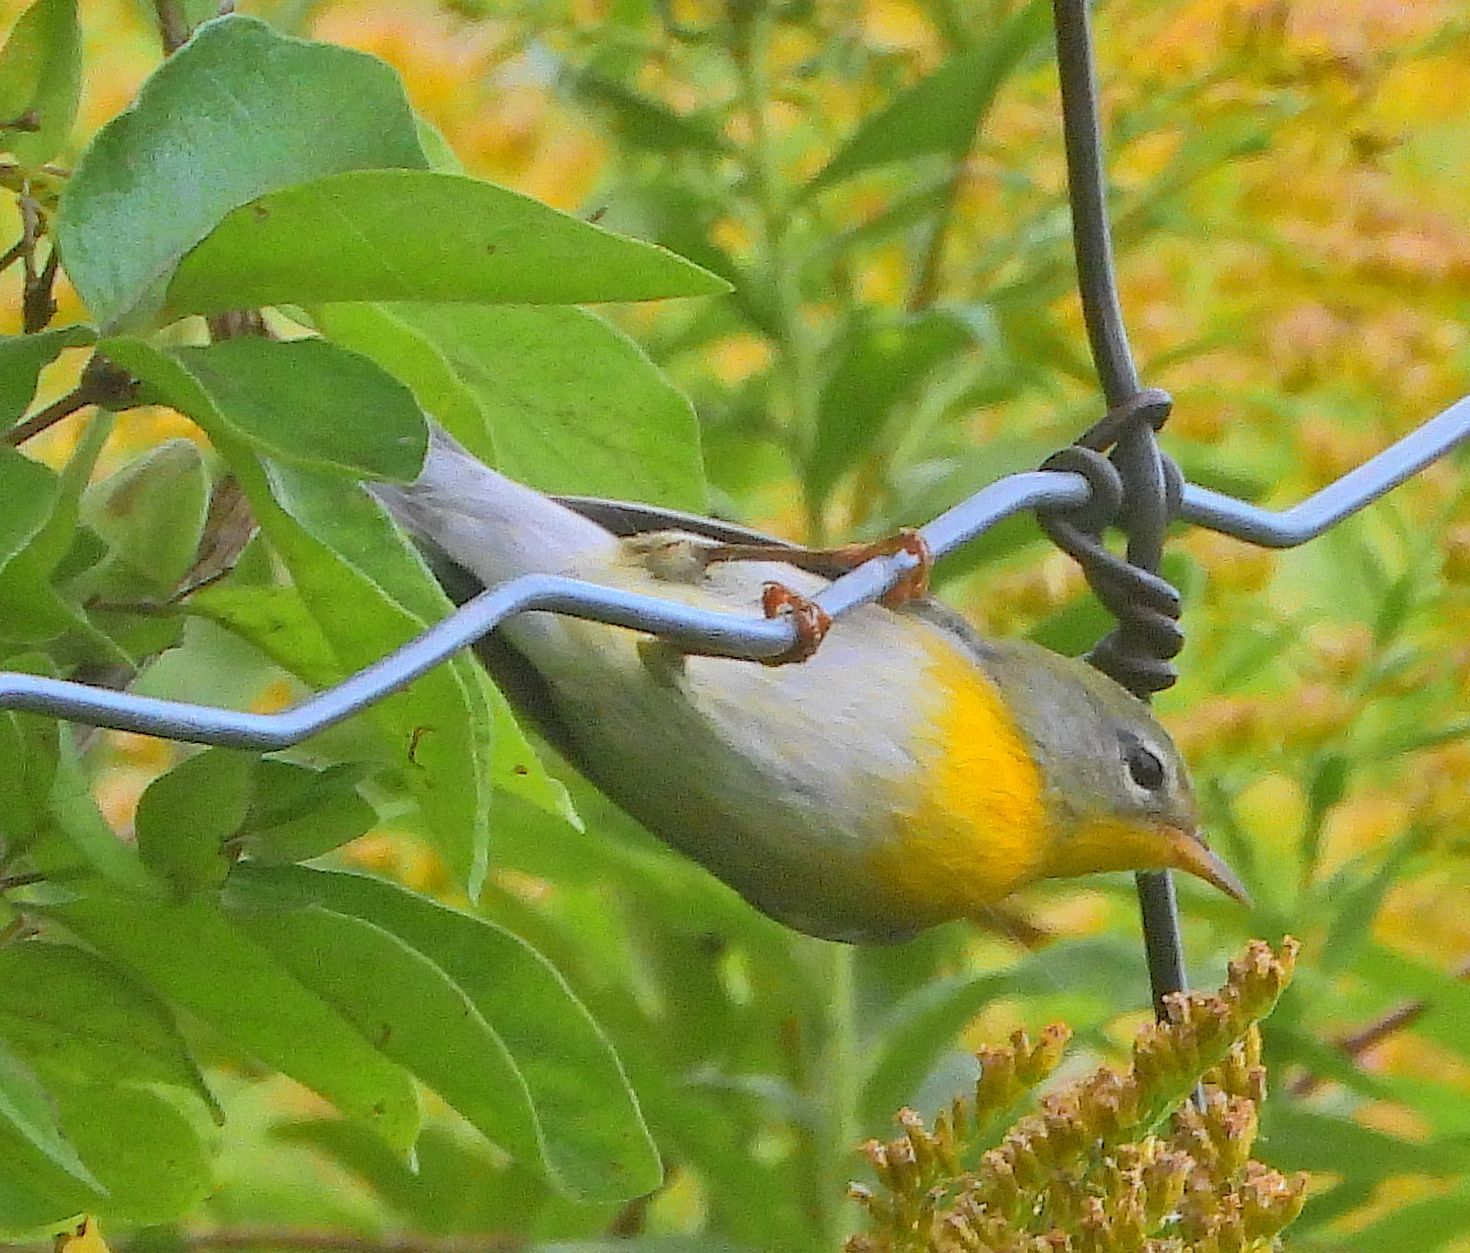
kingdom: Animalia
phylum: Chordata
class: Aves
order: Passeriformes
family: Parulidae
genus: Setophaga
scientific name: Setophaga americana
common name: Northern parula
